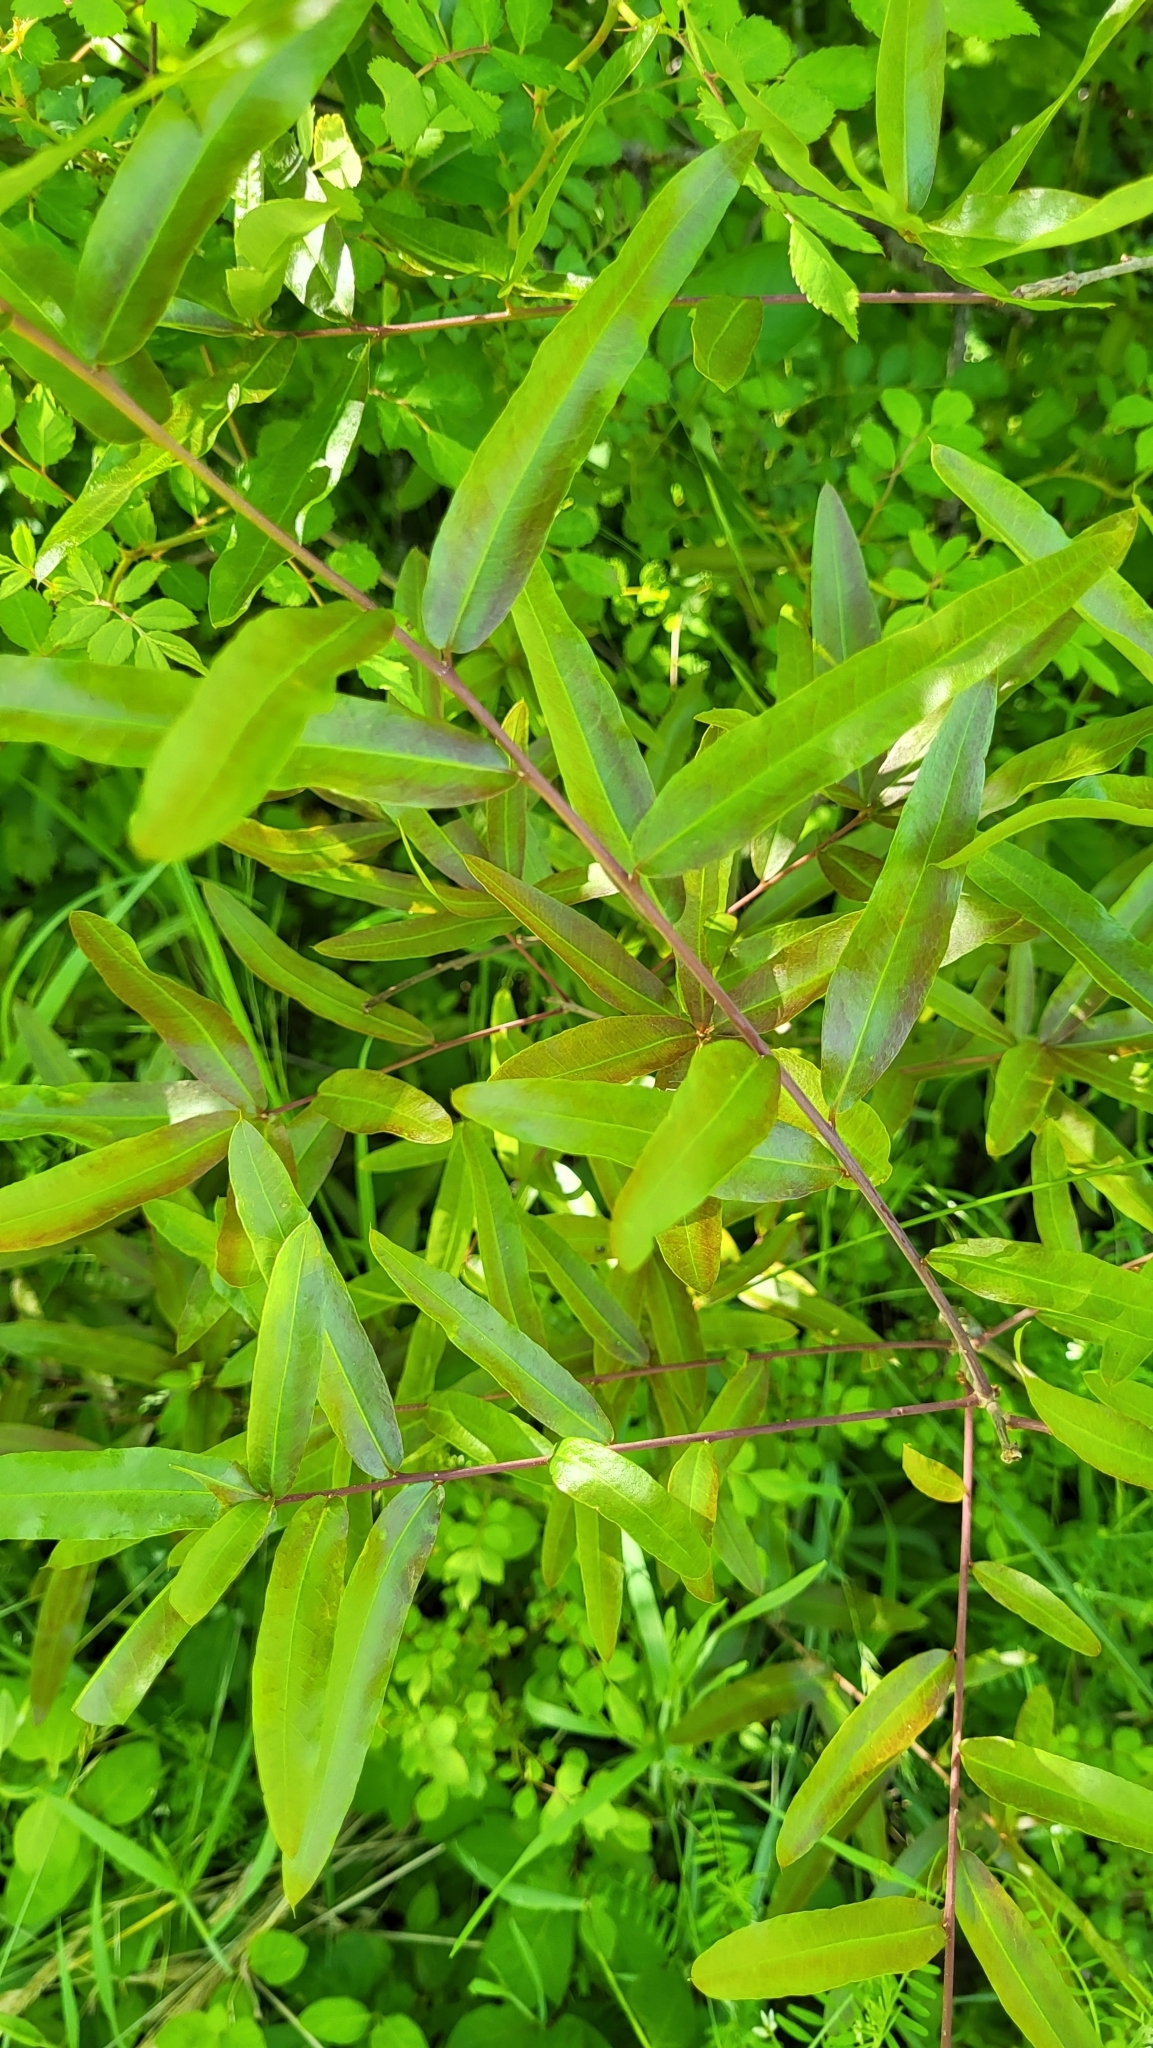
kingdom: Plantae
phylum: Tracheophyta
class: Magnoliopsida
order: Fagales
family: Fagaceae
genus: Quercus
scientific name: Quercus phellos
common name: Willow oak
